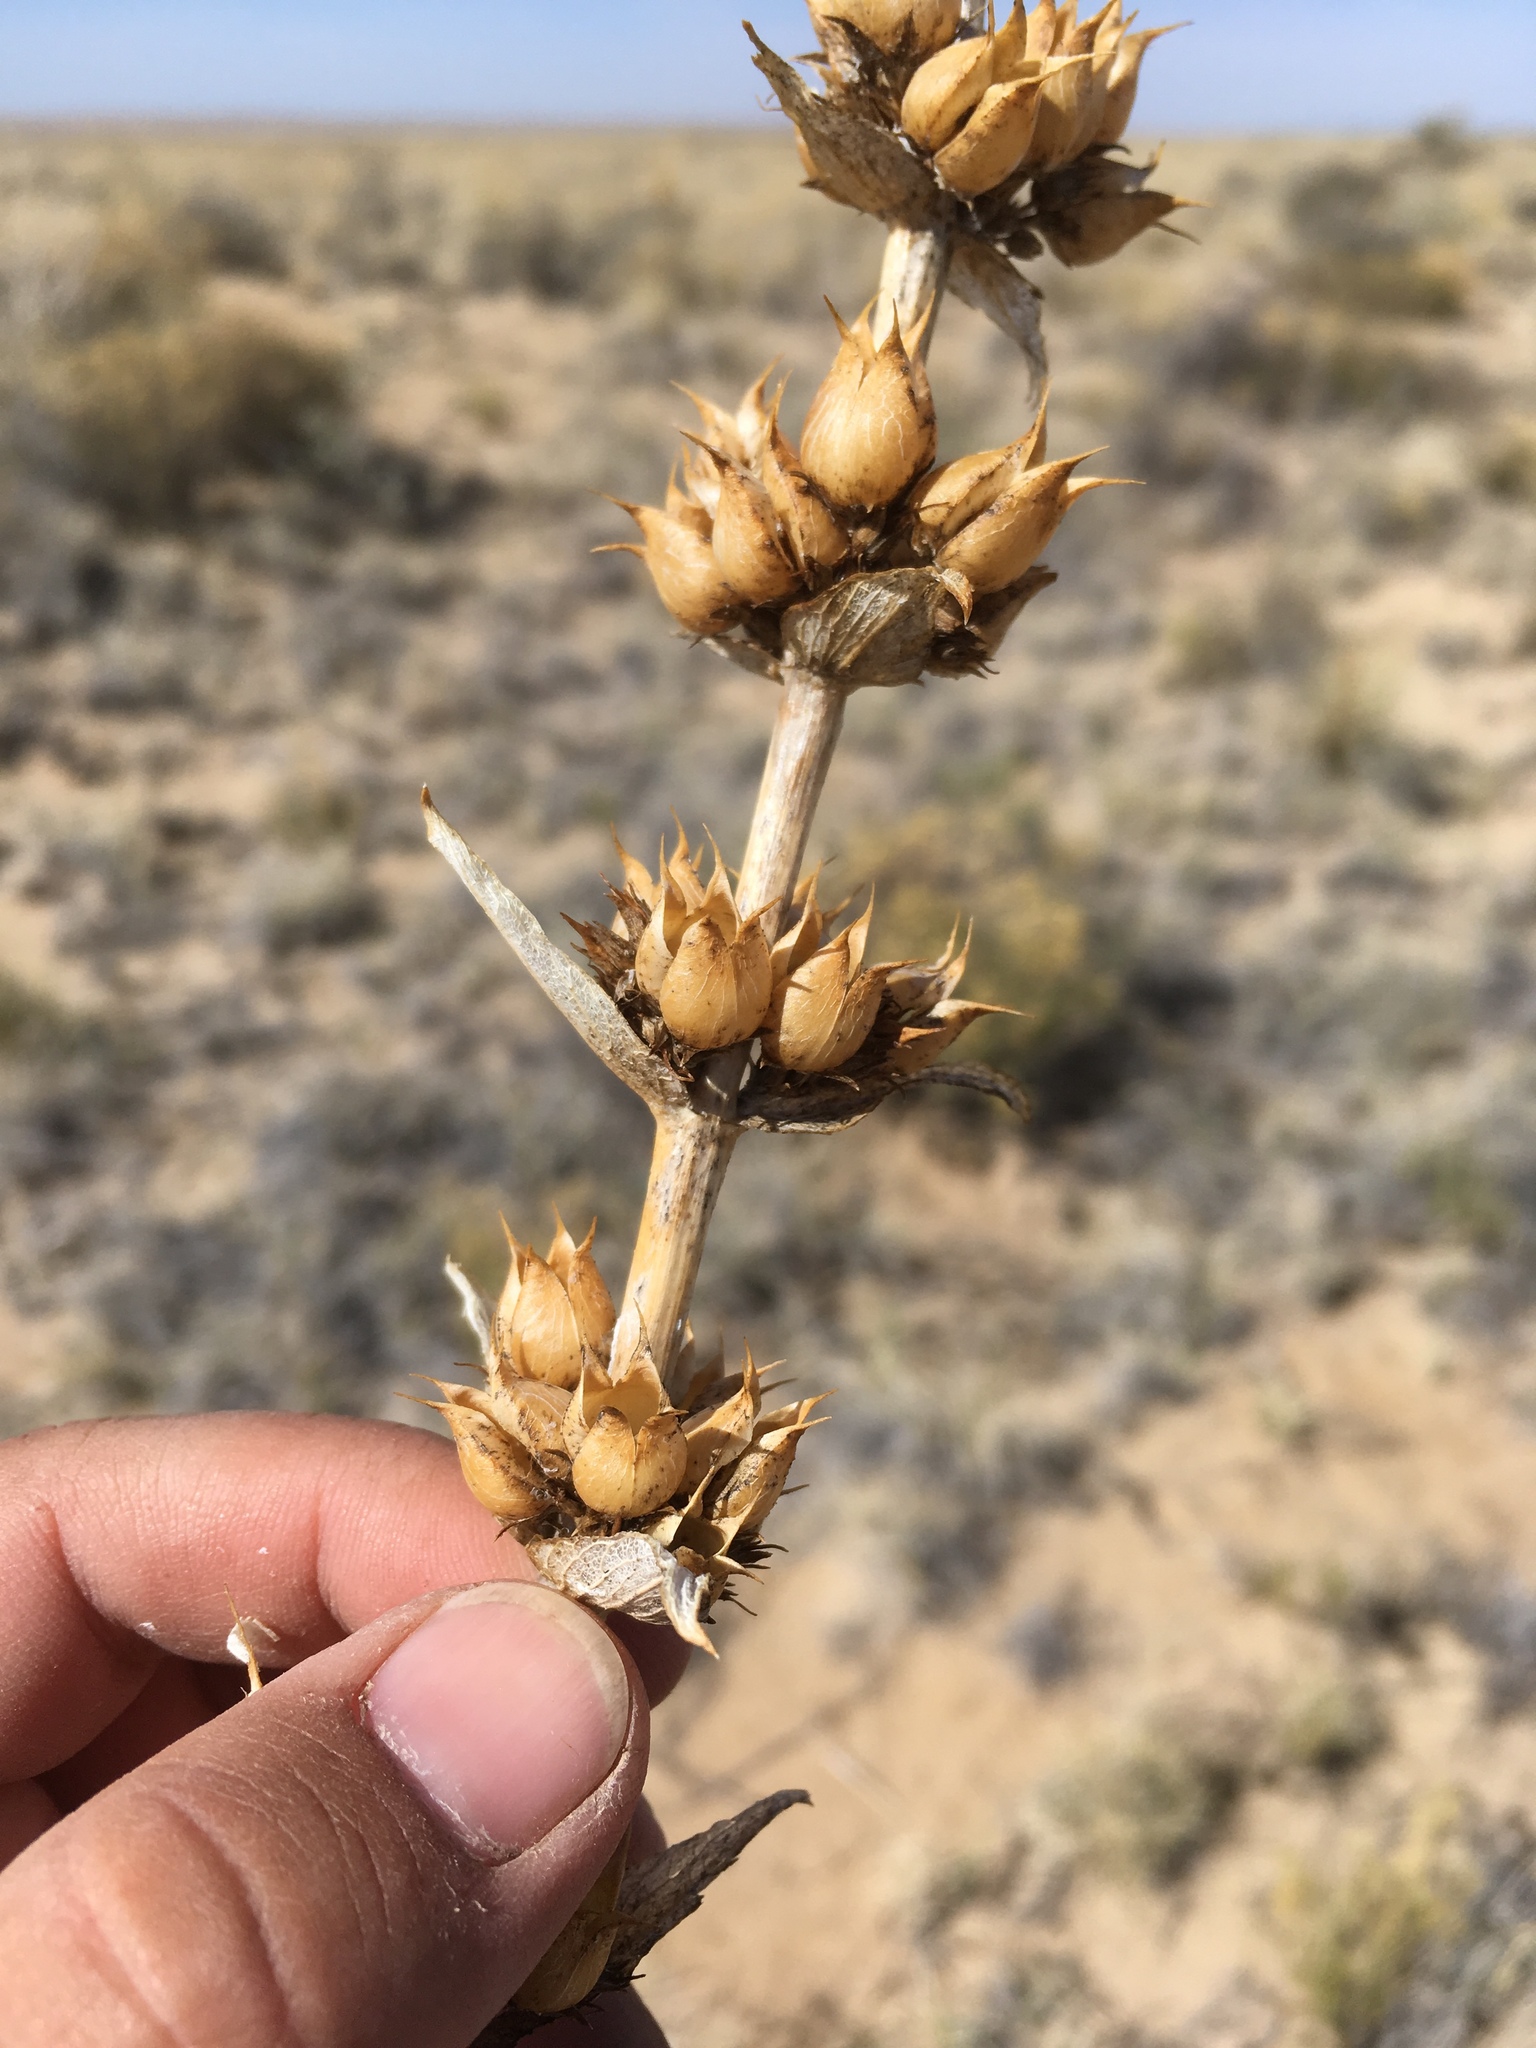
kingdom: Plantae
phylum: Tracheophyta
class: Magnoliopsida
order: Lamiales
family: Plantaginaceae
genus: Penstemon
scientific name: Penstemon angustifolius
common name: Narrow beardtongue
